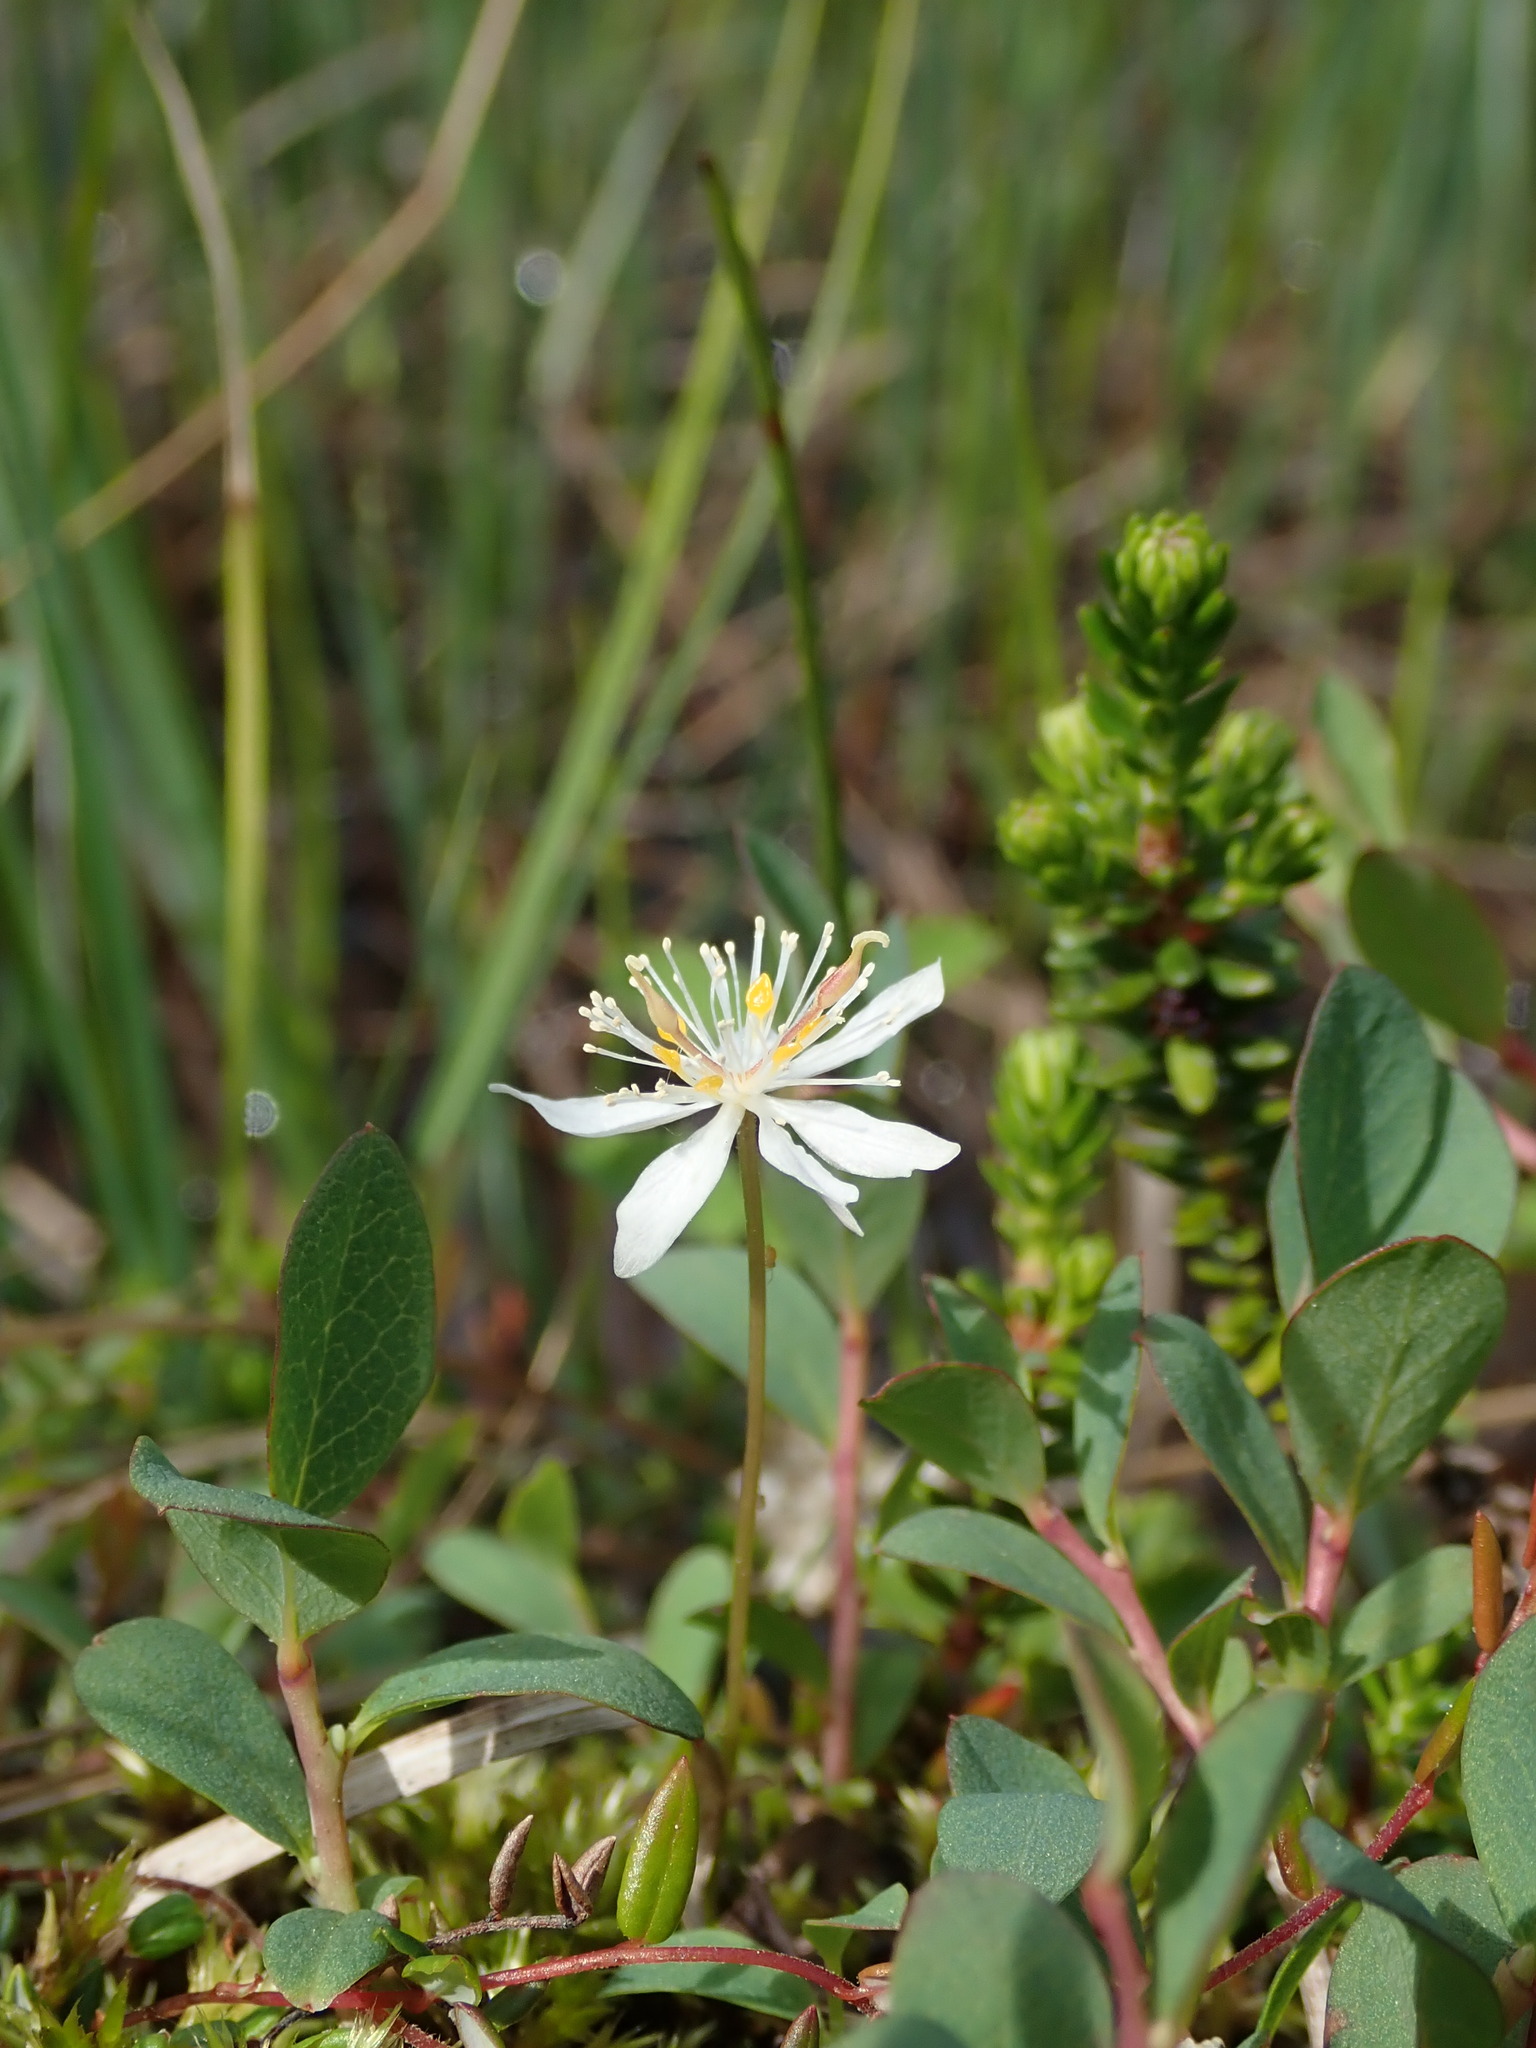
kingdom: Plantae
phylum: Tracheophyta
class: Magnoliopsida
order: Ranunculales
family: Ranunculaceae
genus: Coptis
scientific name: Coptis trifolia
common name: Canker-root
